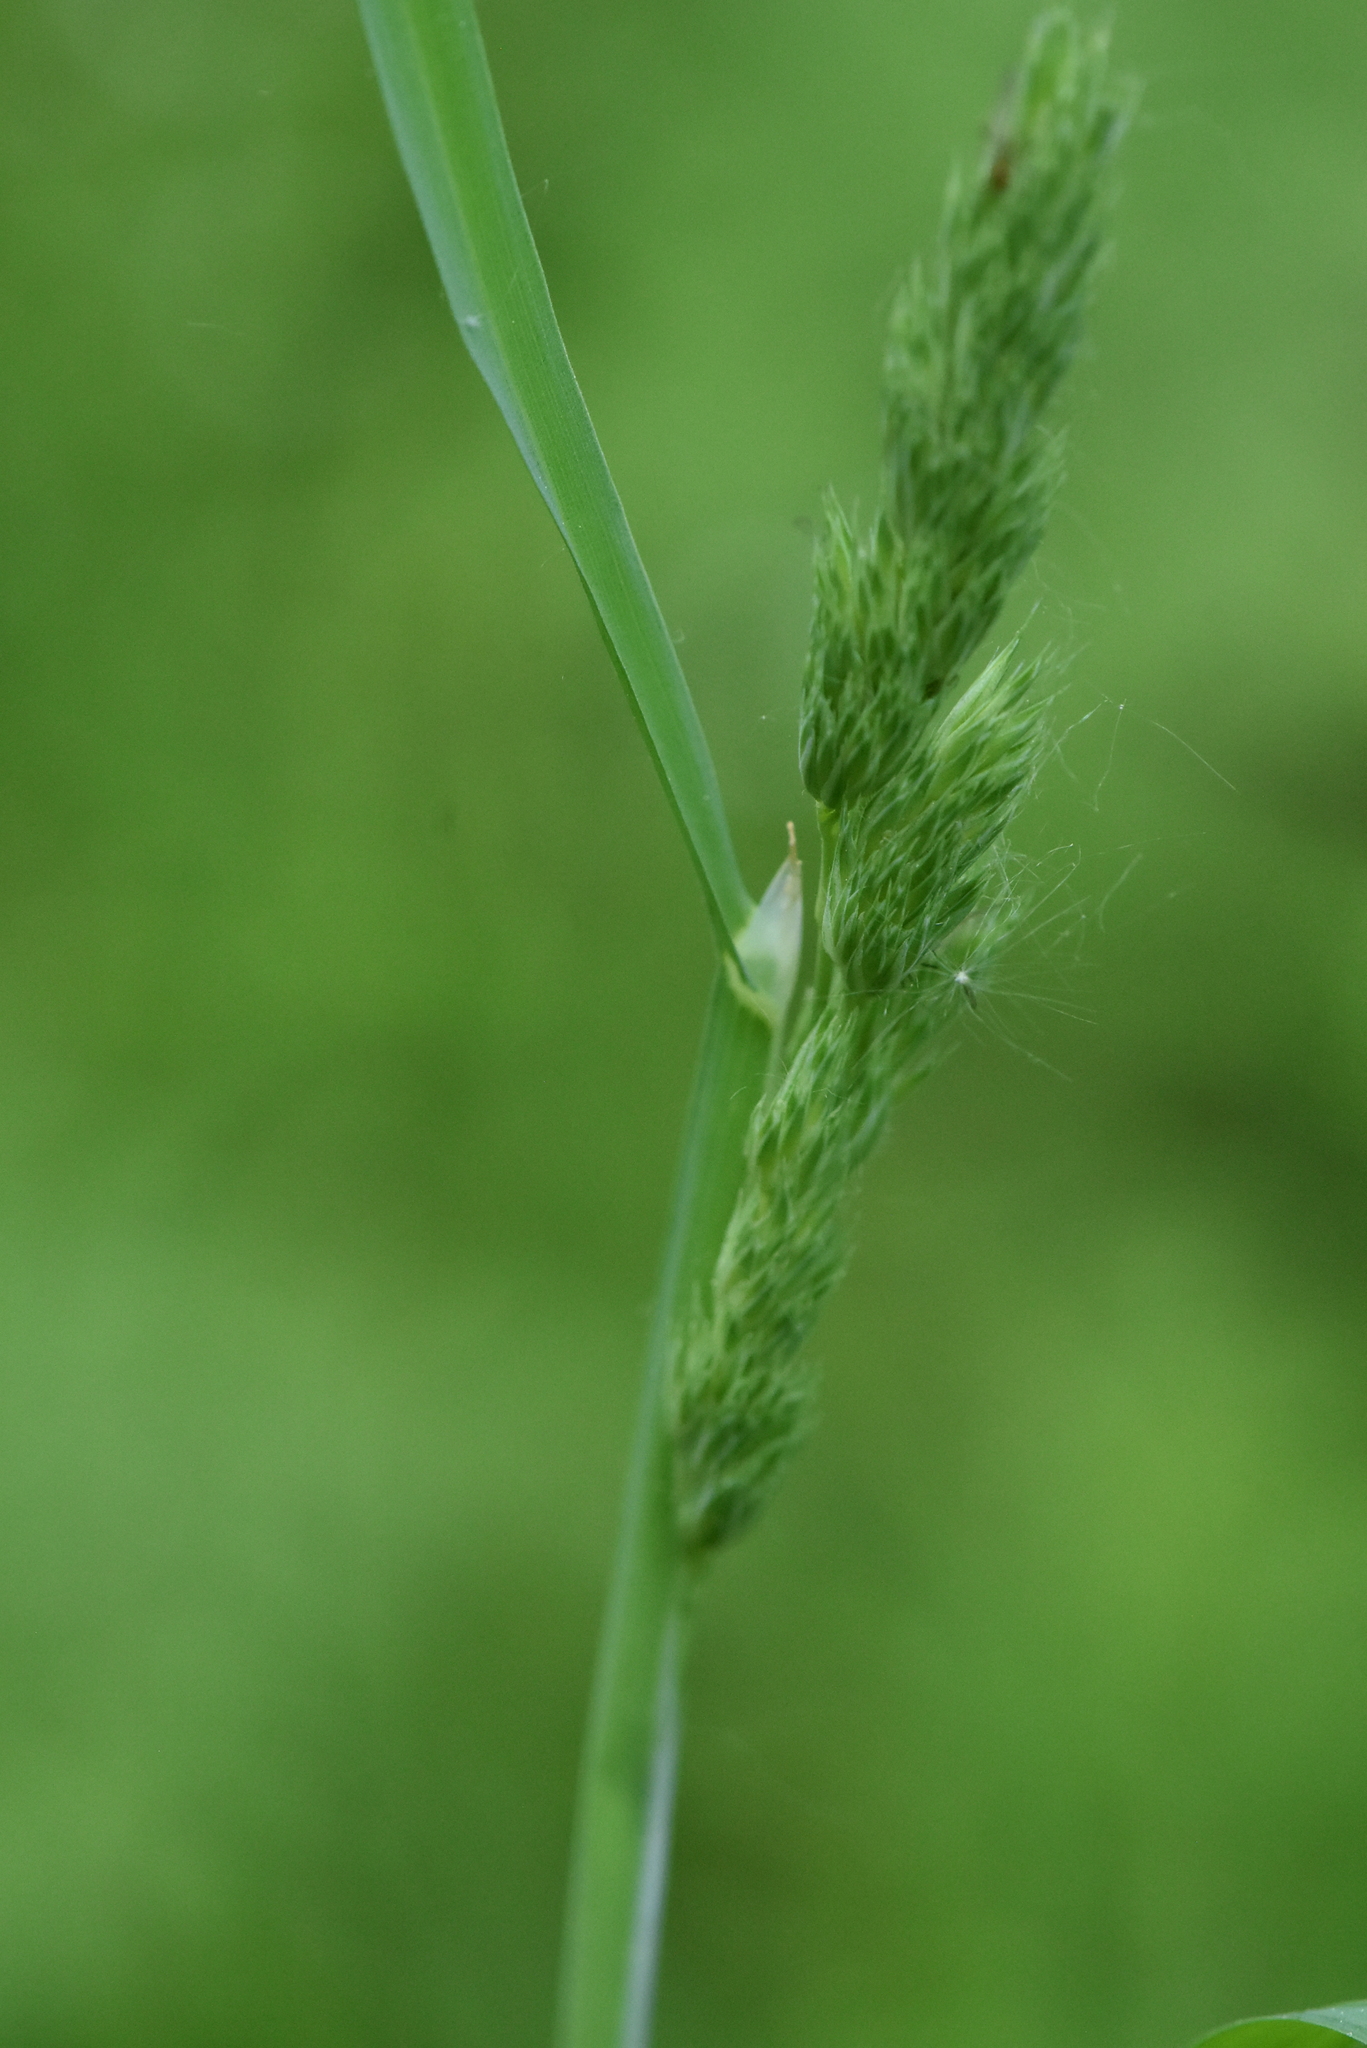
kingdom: Plantae
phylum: Tracheophyta
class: Liliopsida
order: Poales
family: Poaceae
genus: Dactylis
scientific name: Dactylis glomerata
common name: Orchardgrass
